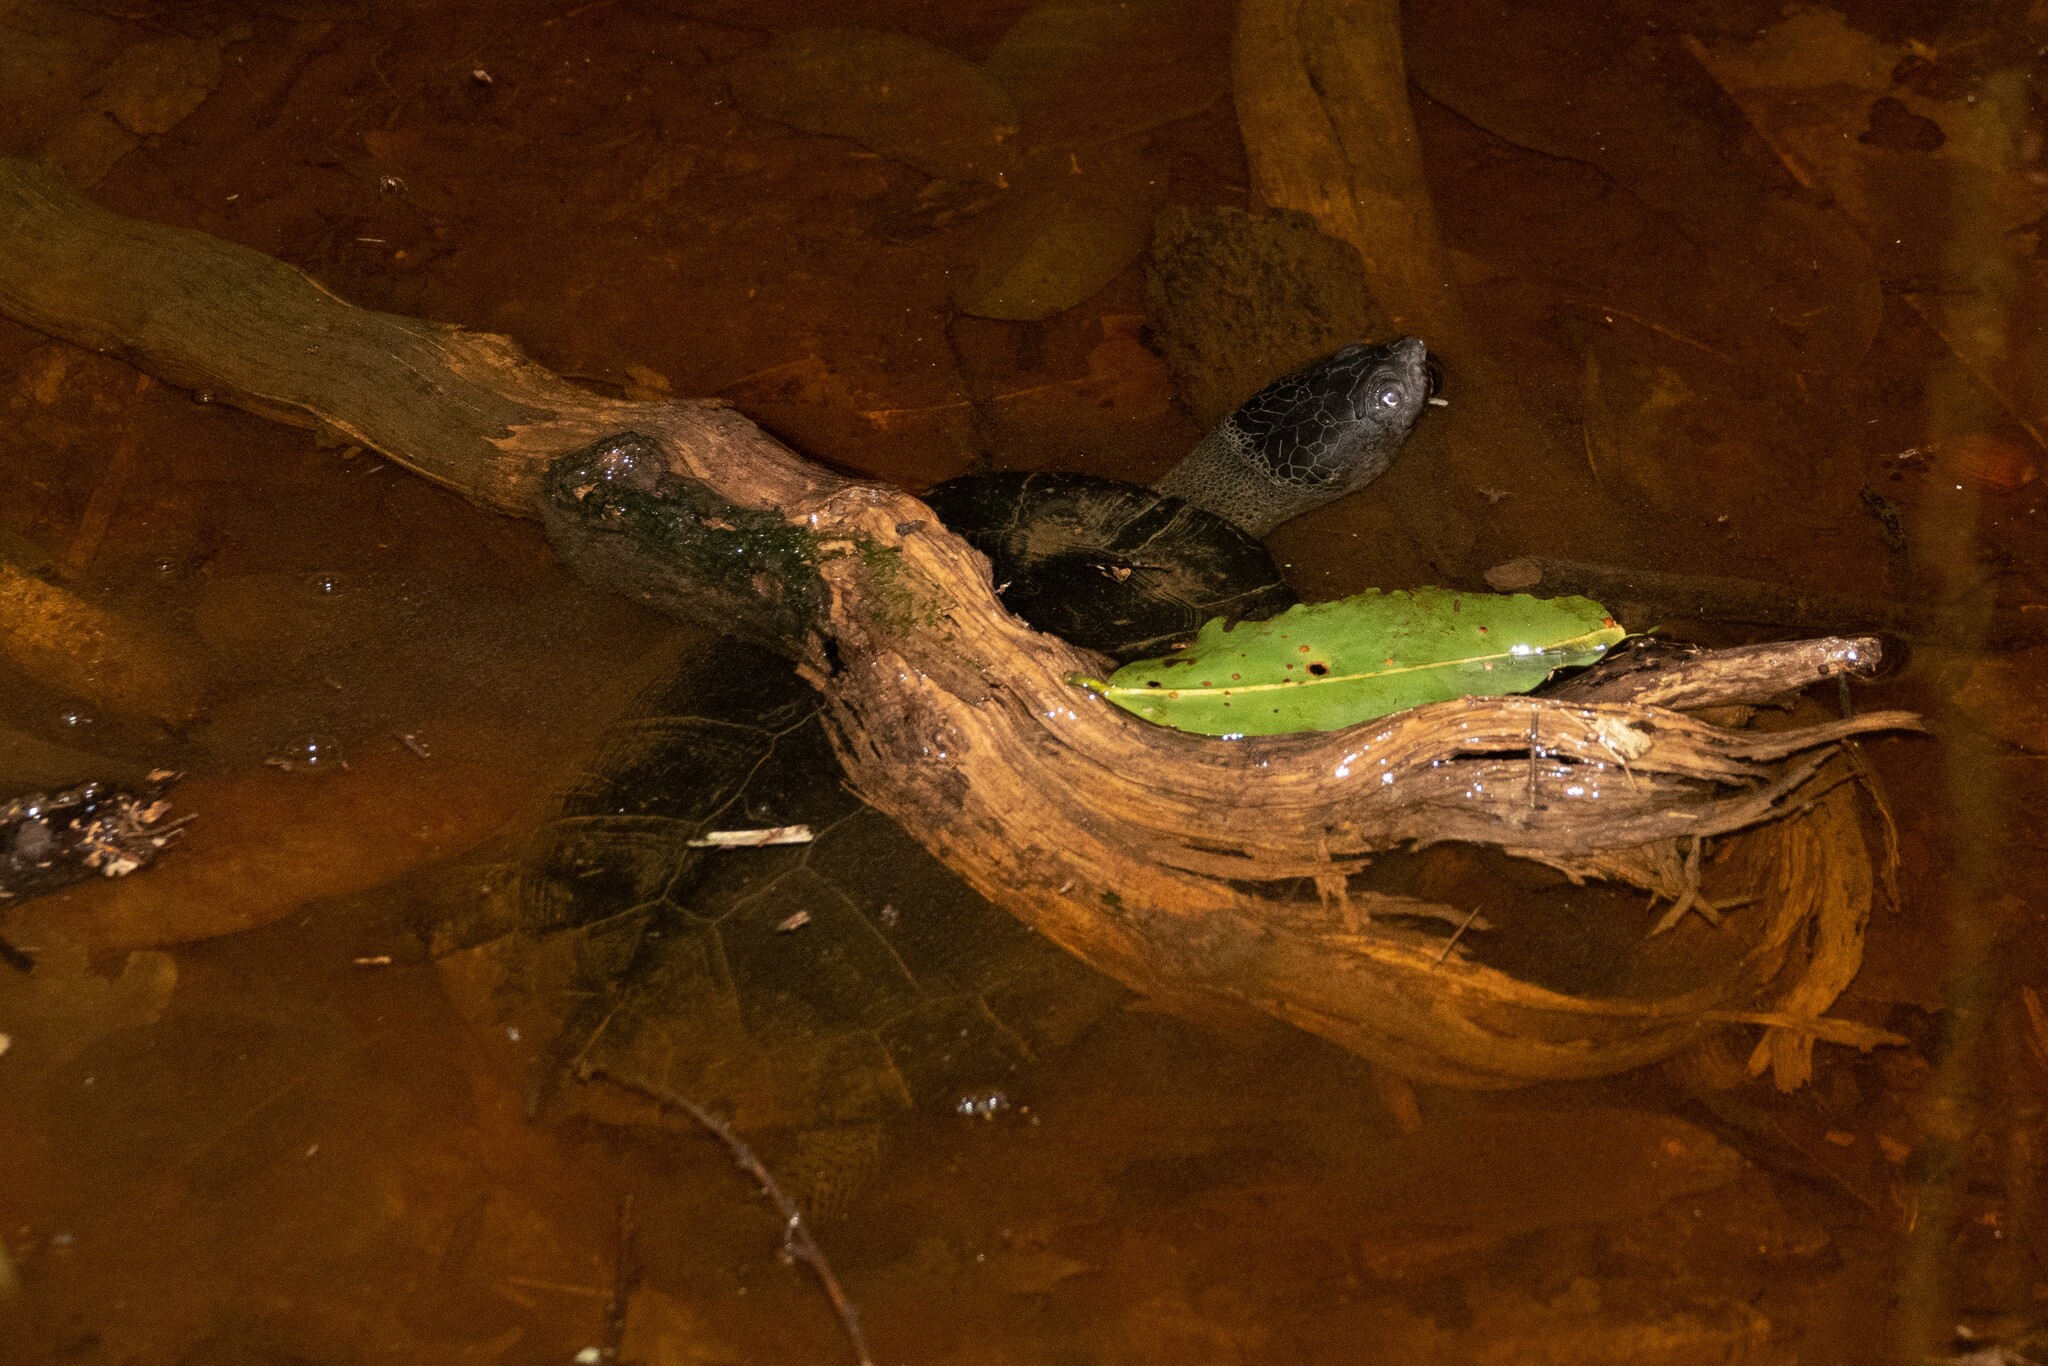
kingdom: Animalia
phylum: Chordata
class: Testudines
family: Chelidae
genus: Mesoclemmys
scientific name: Mesoclemmys gibba
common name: Gibba turtle
